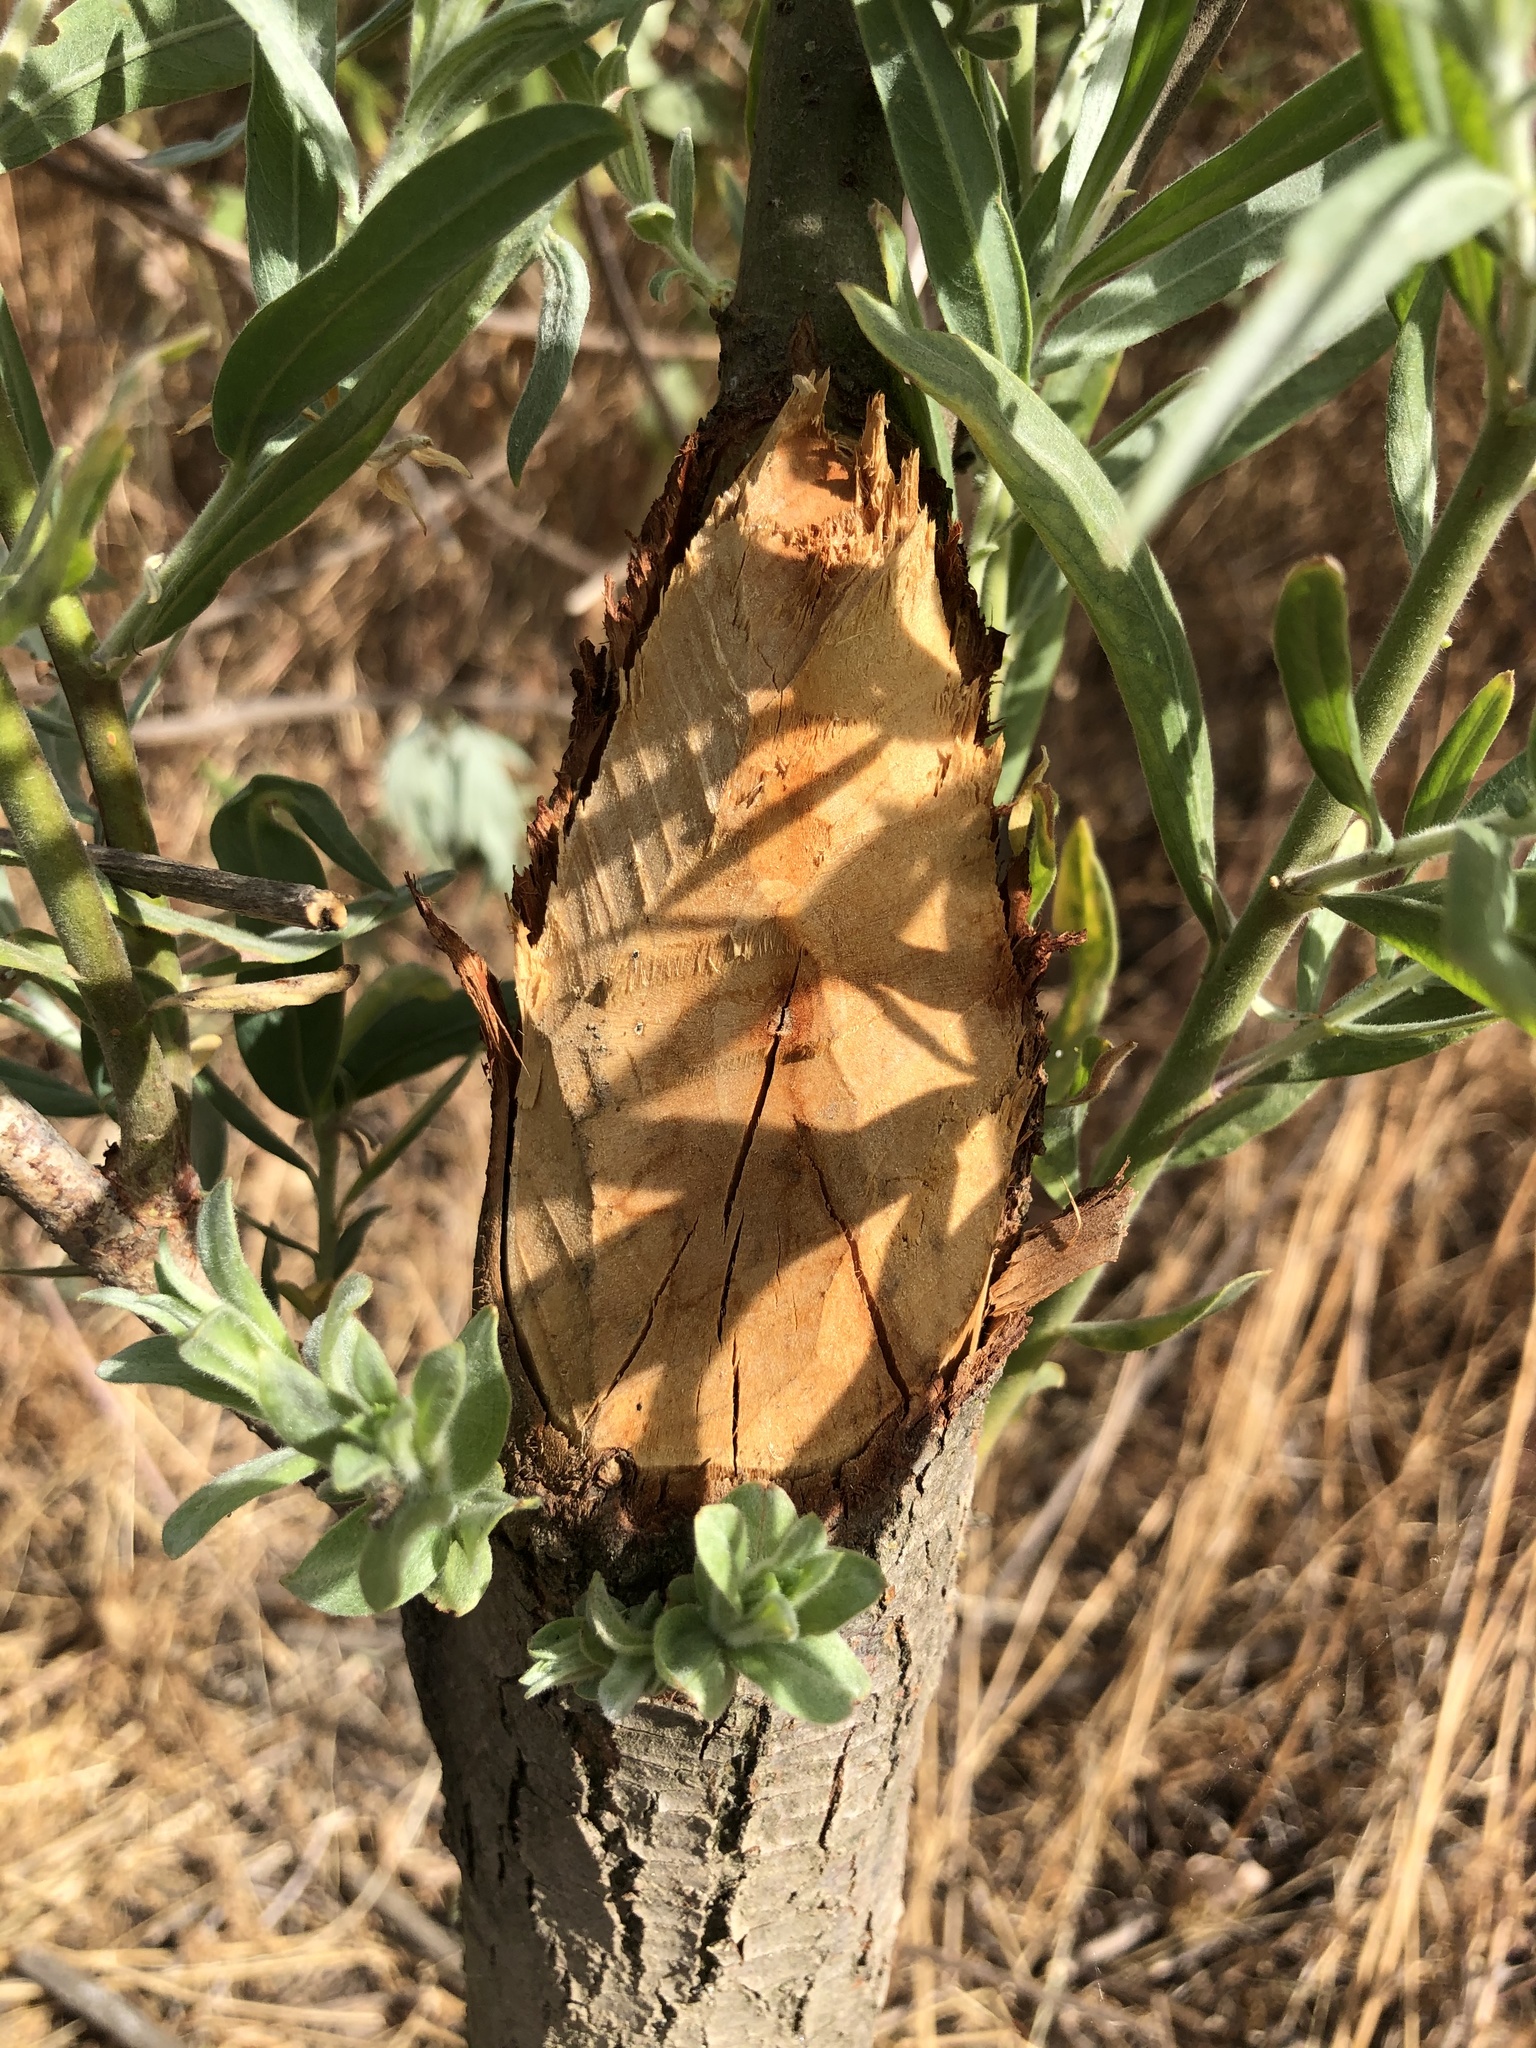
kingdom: Animalia
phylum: Chordata
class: Mammalia
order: Rodentia
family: Castoridae
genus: Castor
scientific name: Castor canadensis
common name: American beaver
